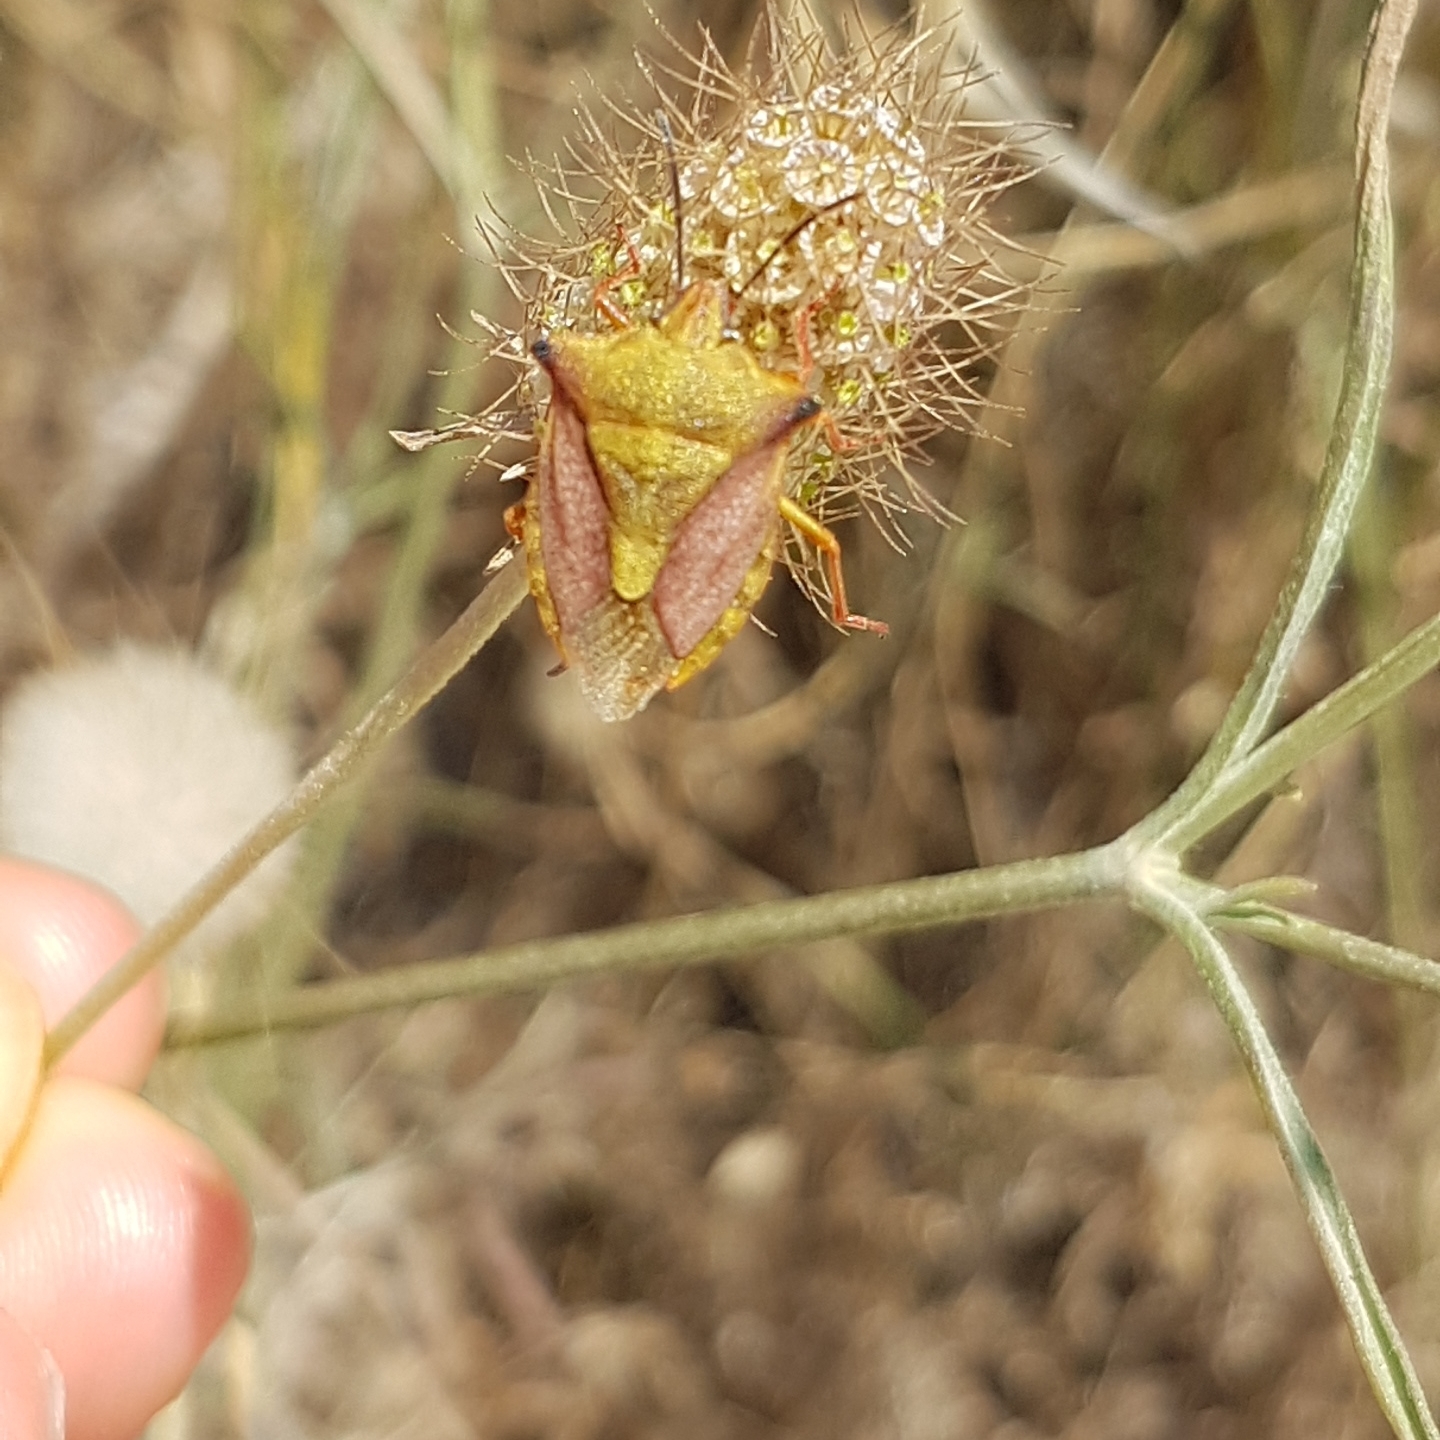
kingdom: Animalia
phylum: Arthropoda
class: Insecta
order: Hemiptera
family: Pentatomidae
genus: Carpocoris
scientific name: Carpocoris mediterraneus
